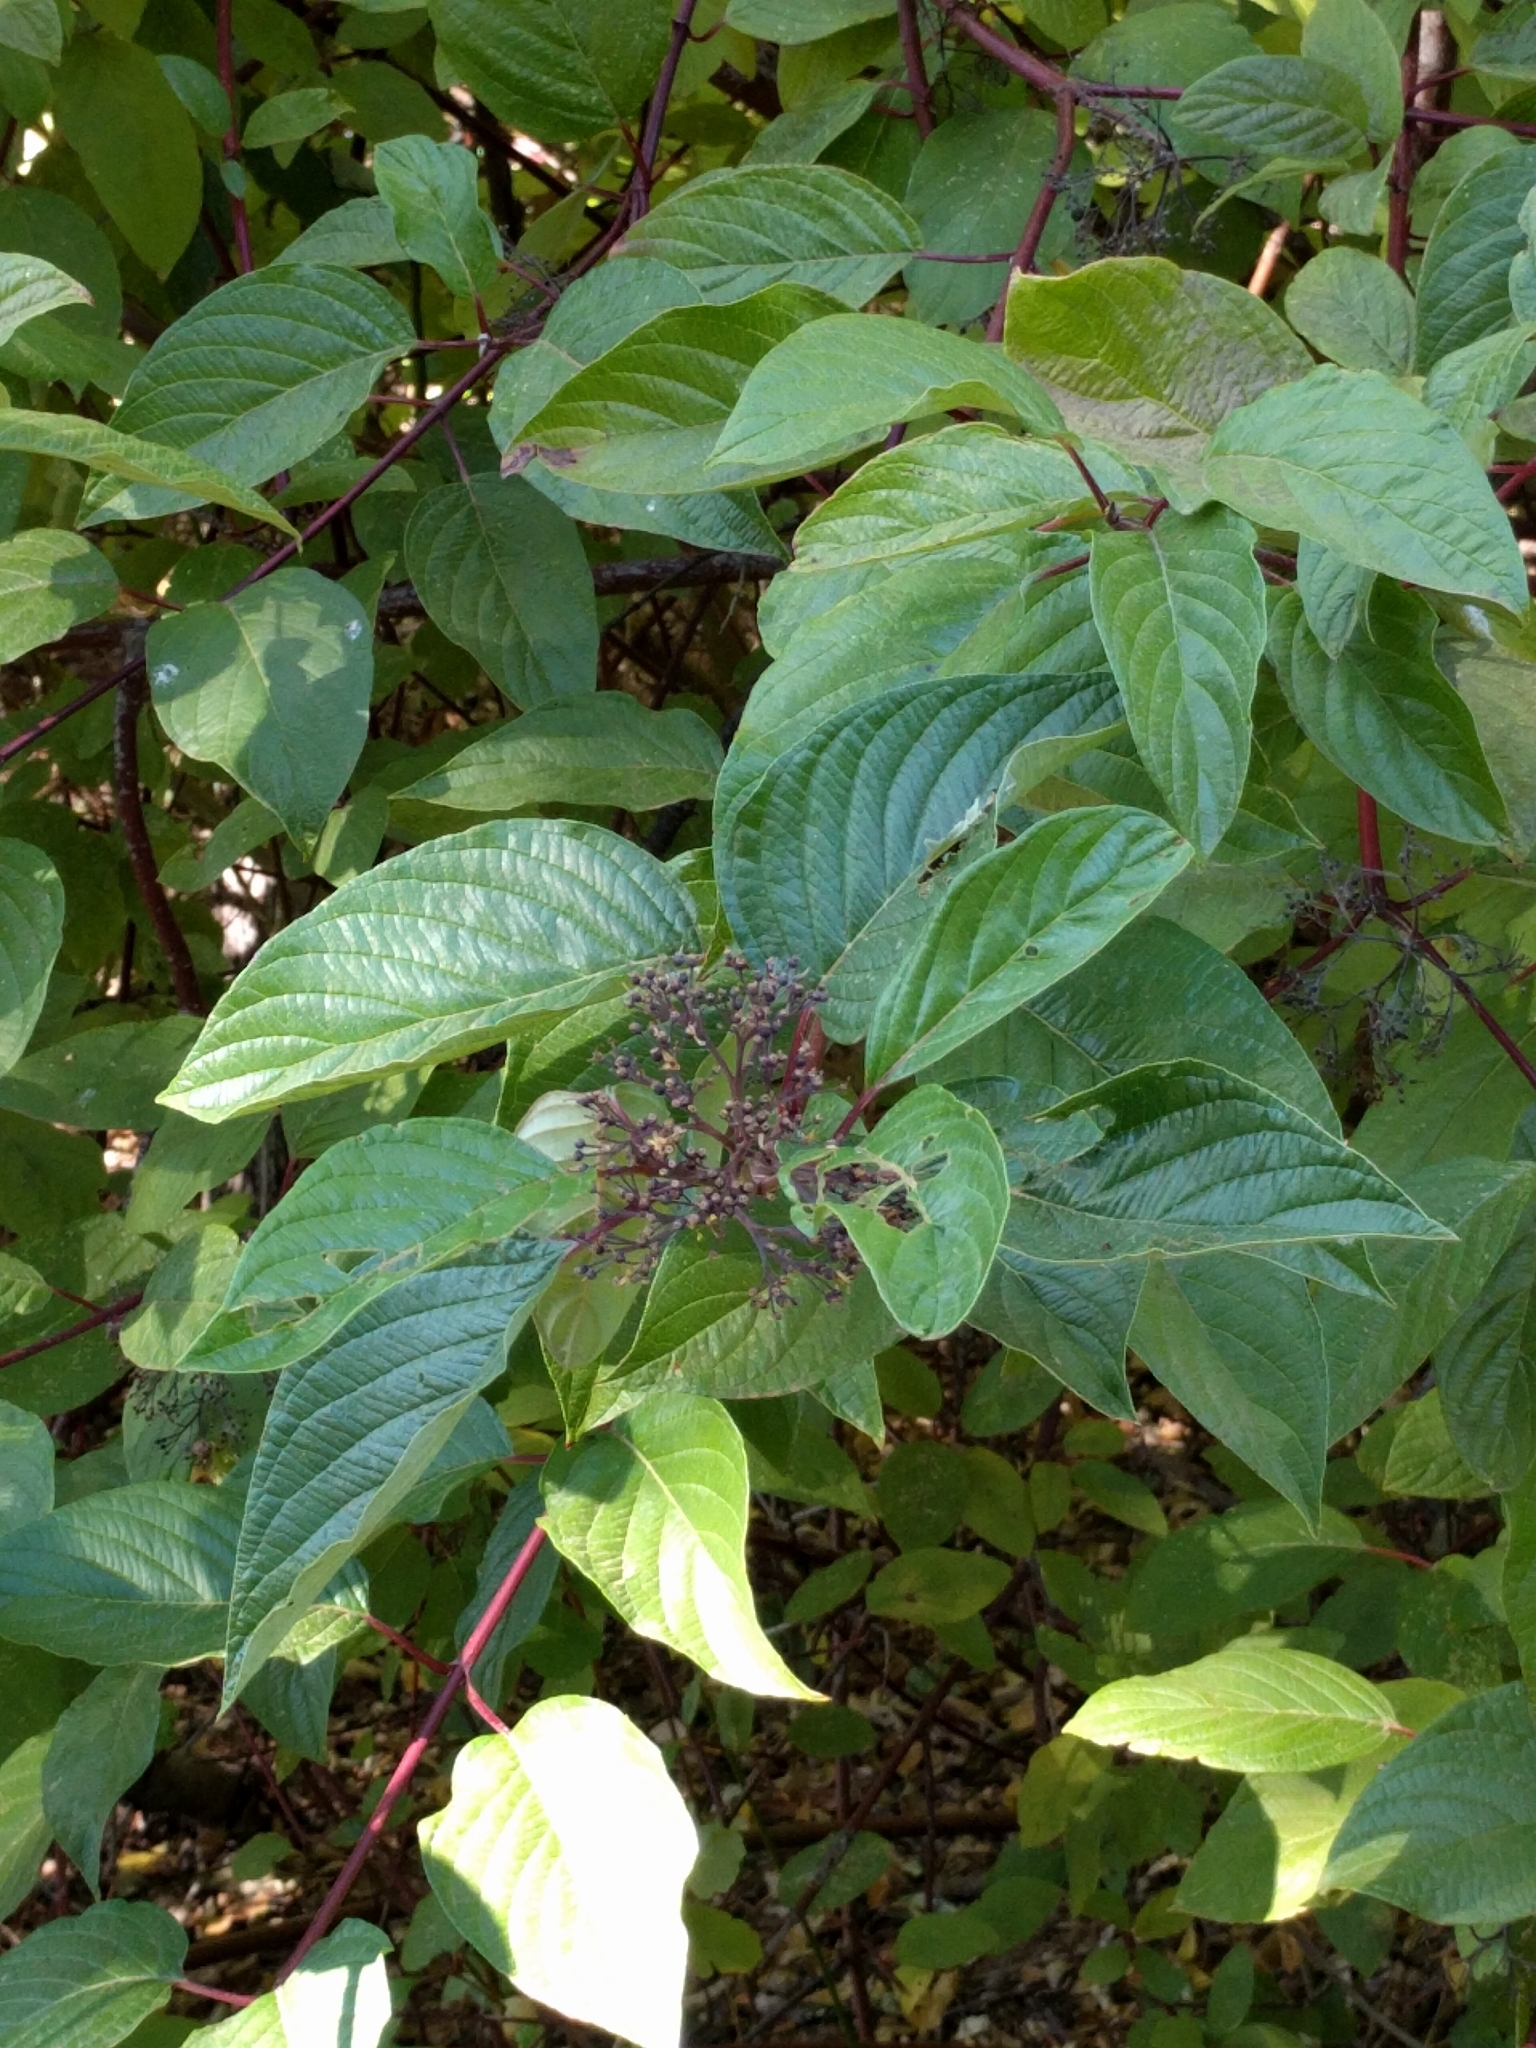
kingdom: Plantae
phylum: Tracheophyta
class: Magnoliopsida
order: Cornales
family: Cornaceae
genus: Cornus
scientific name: Cornus sericea
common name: Red-osier dogwood
